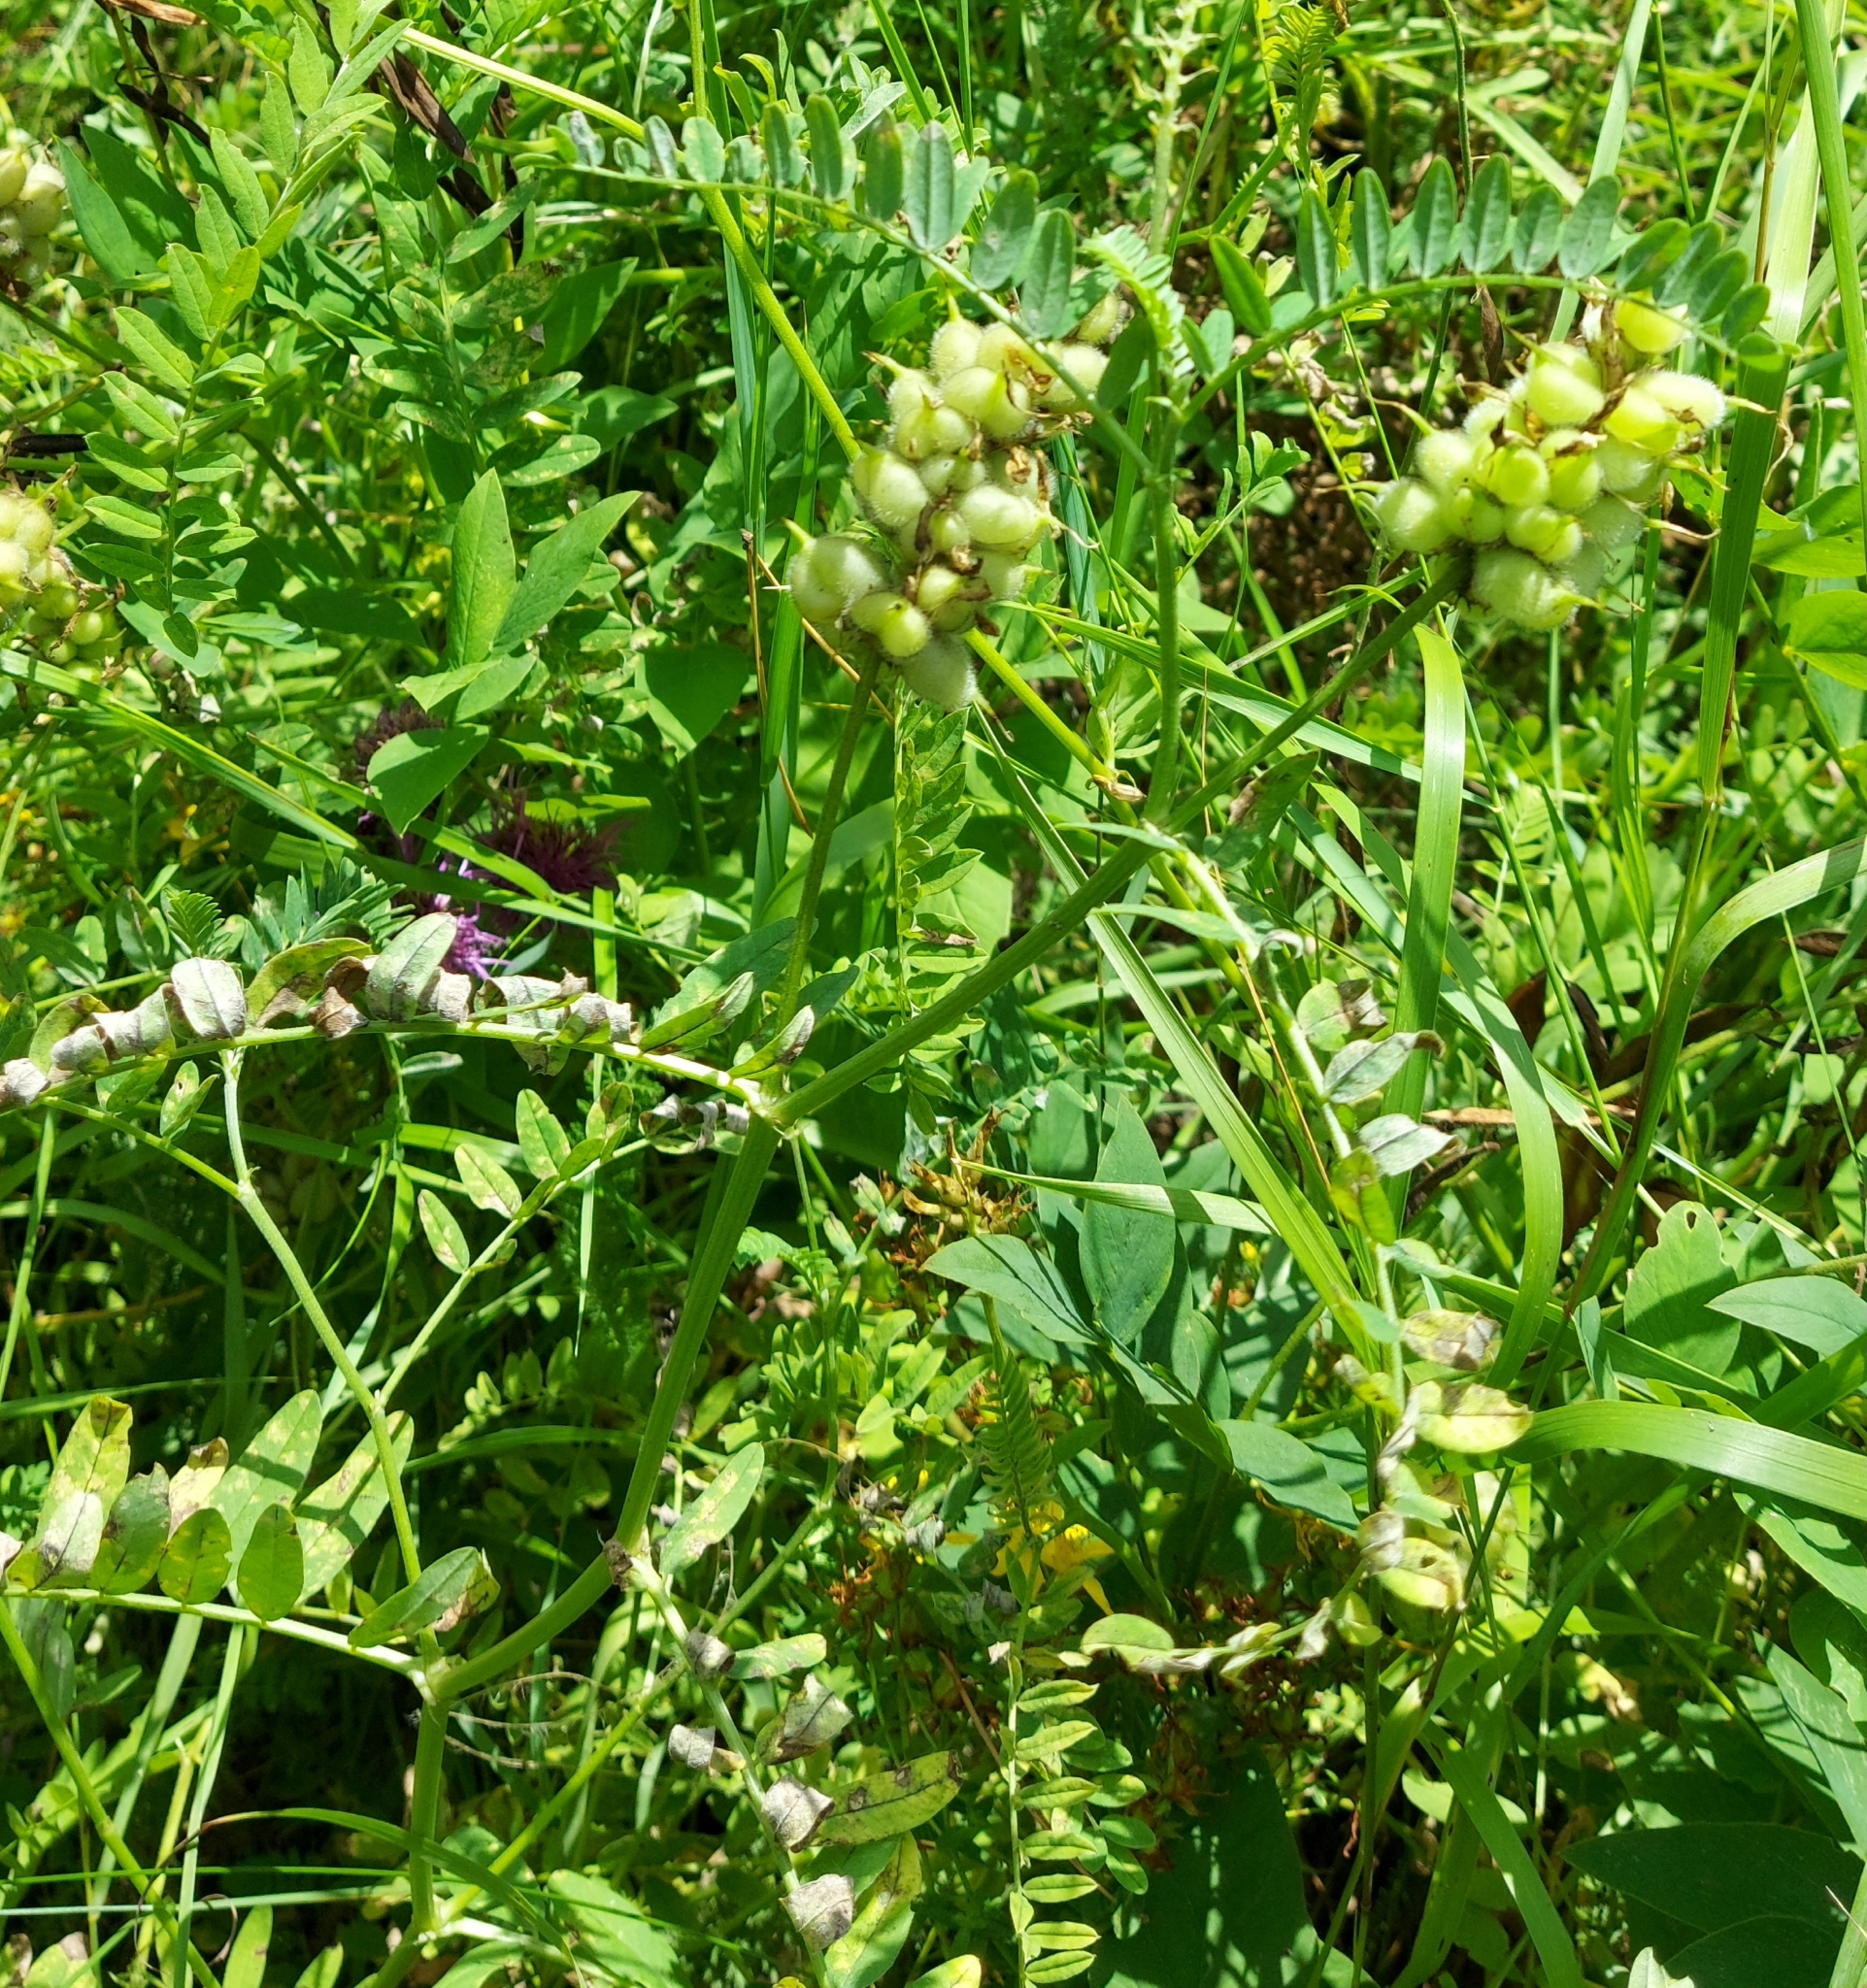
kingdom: Plantae
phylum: Tracheophyta
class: Magnoliopsida
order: Fabales
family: Fabaceae
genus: Astragalus
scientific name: Astragalus cicer
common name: Chick-pea milk-vetch
